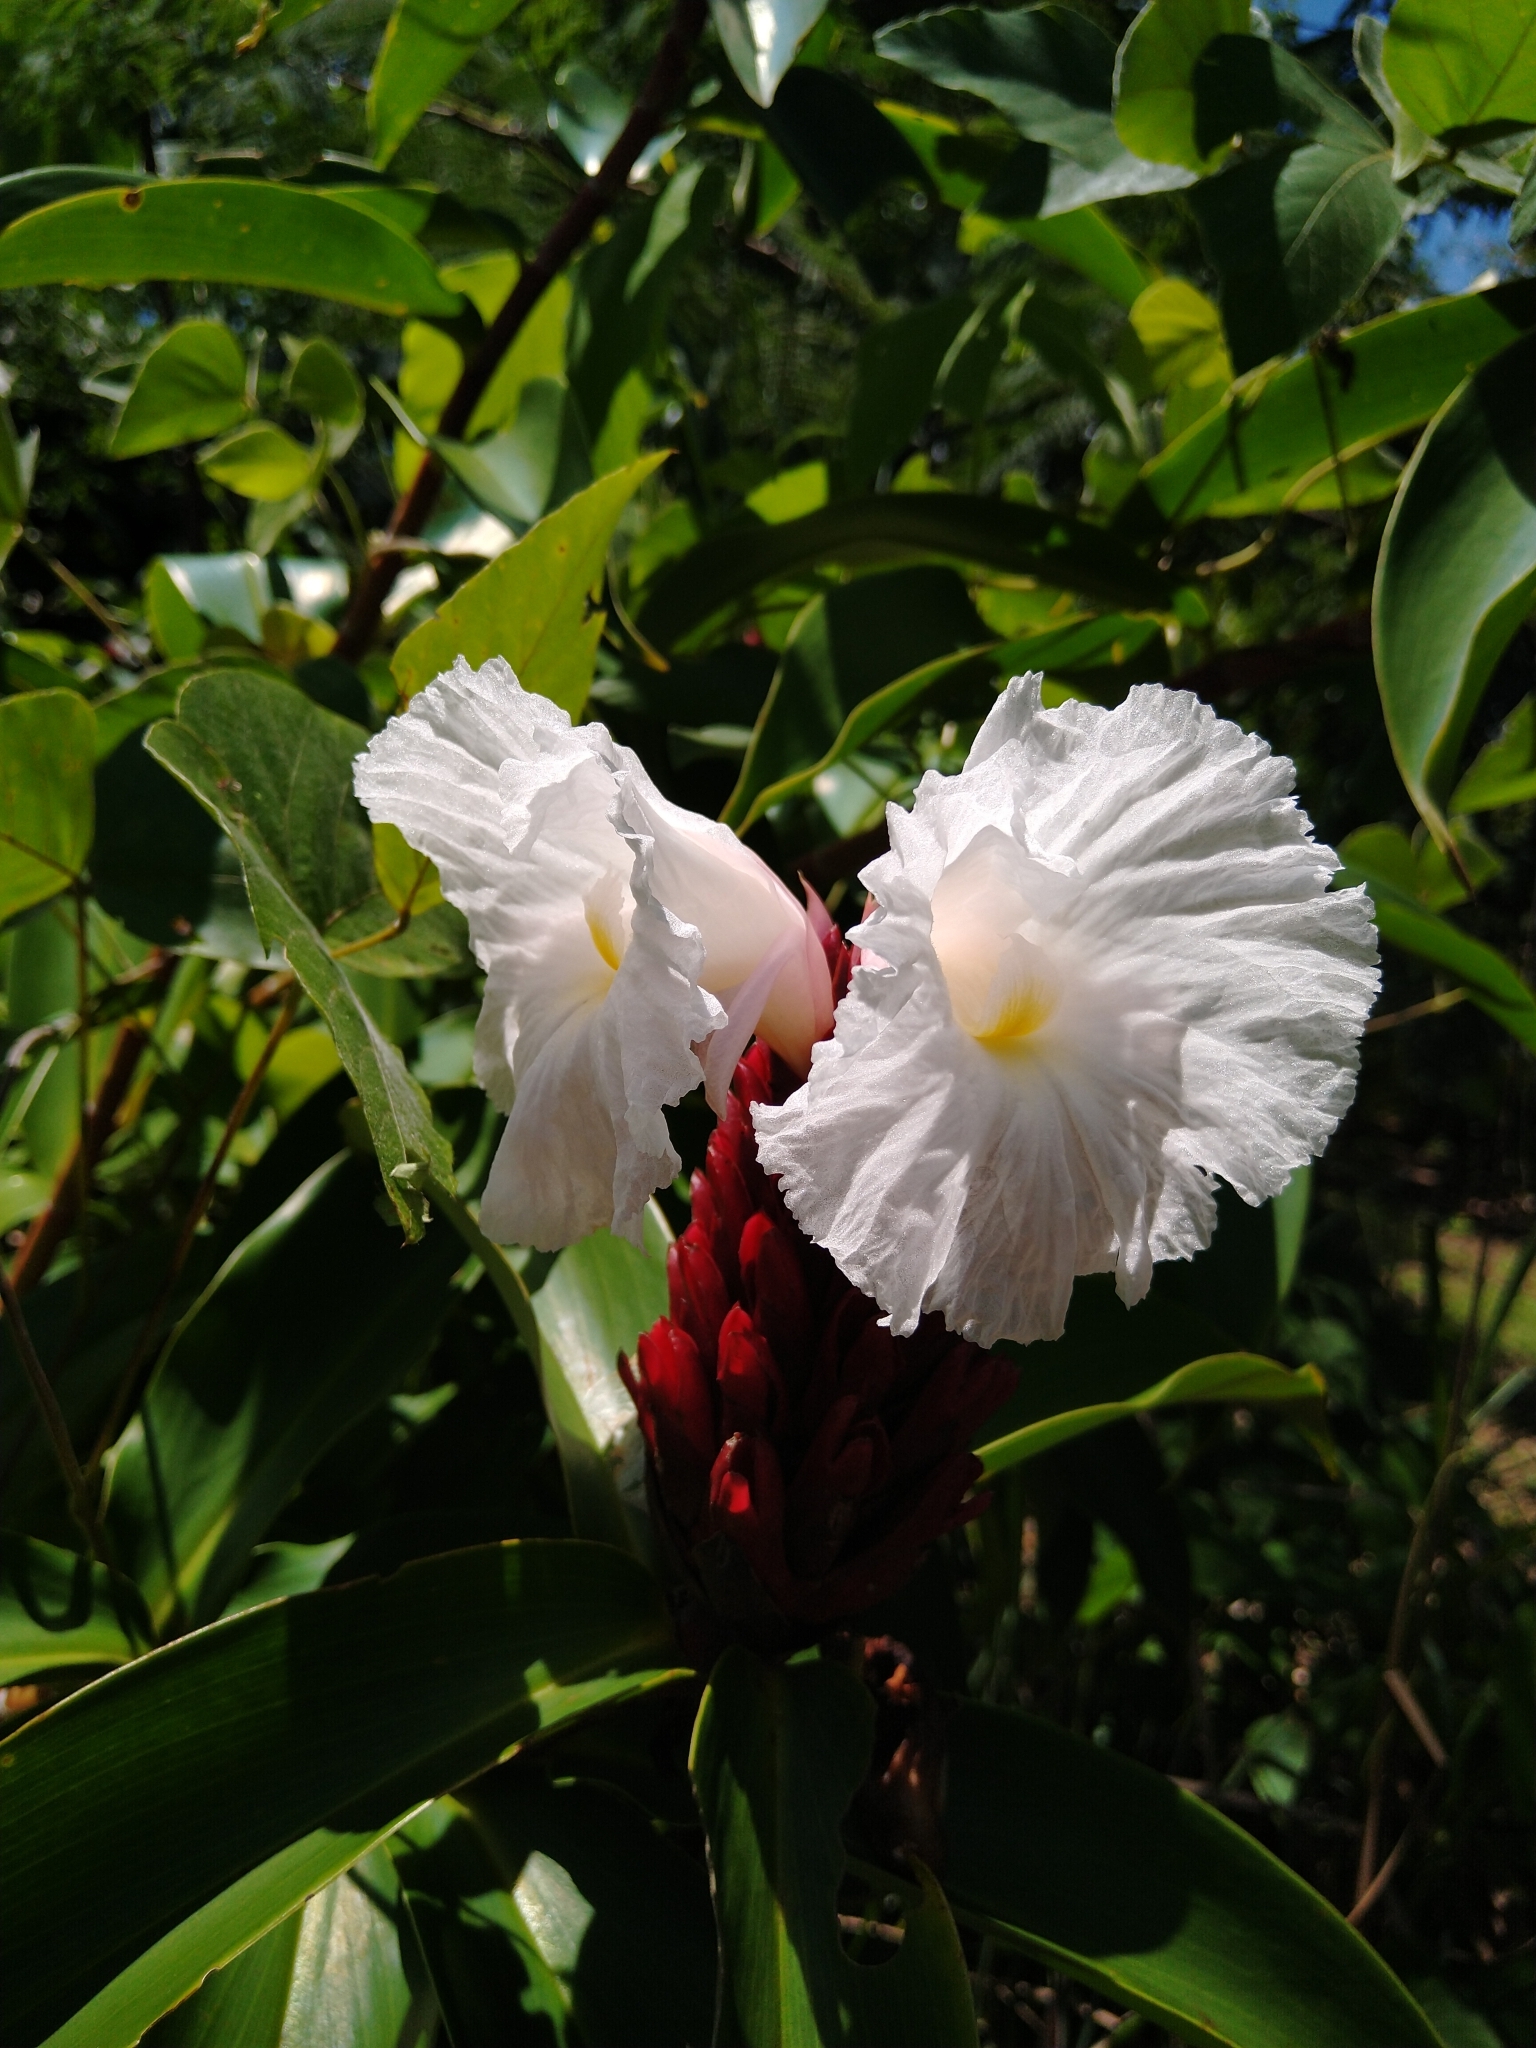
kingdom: Plantae
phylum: Tracheophyta
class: Liliopsida
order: Zingiberales
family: Costaceae
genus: Hellenia
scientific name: Hellenia speciosa
